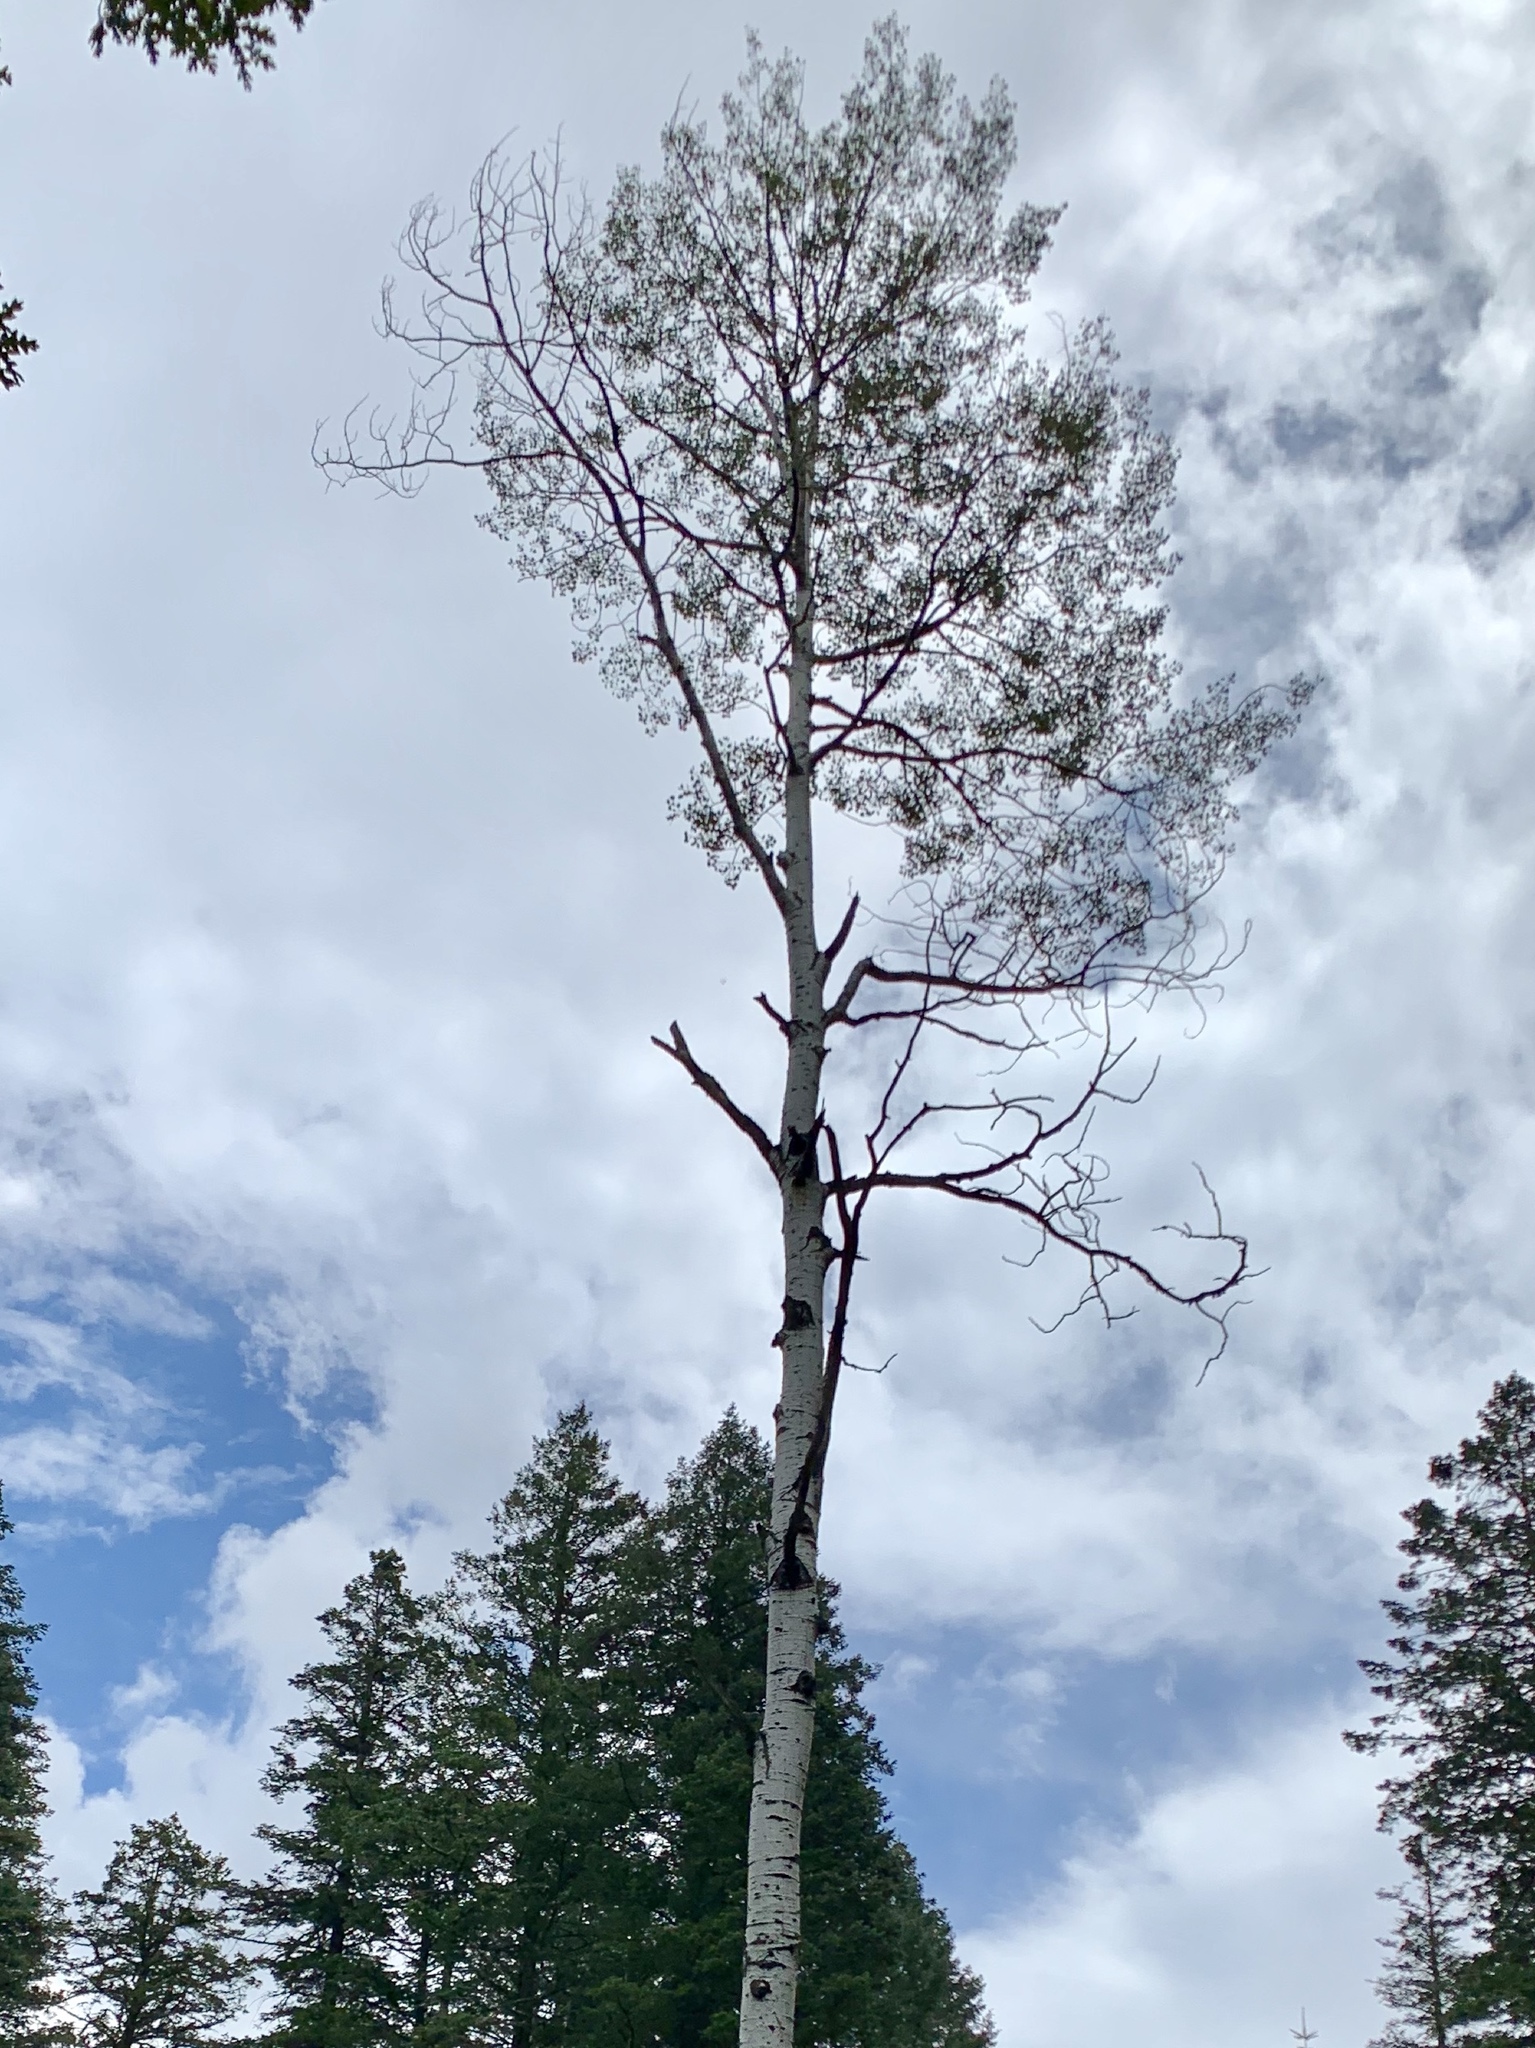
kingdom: Plantae
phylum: Tracheophyta
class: Magnoliopsida
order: Malpighiales
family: Salicaceae
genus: Populus
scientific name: Populus tremuloides
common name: Quaking aspen
